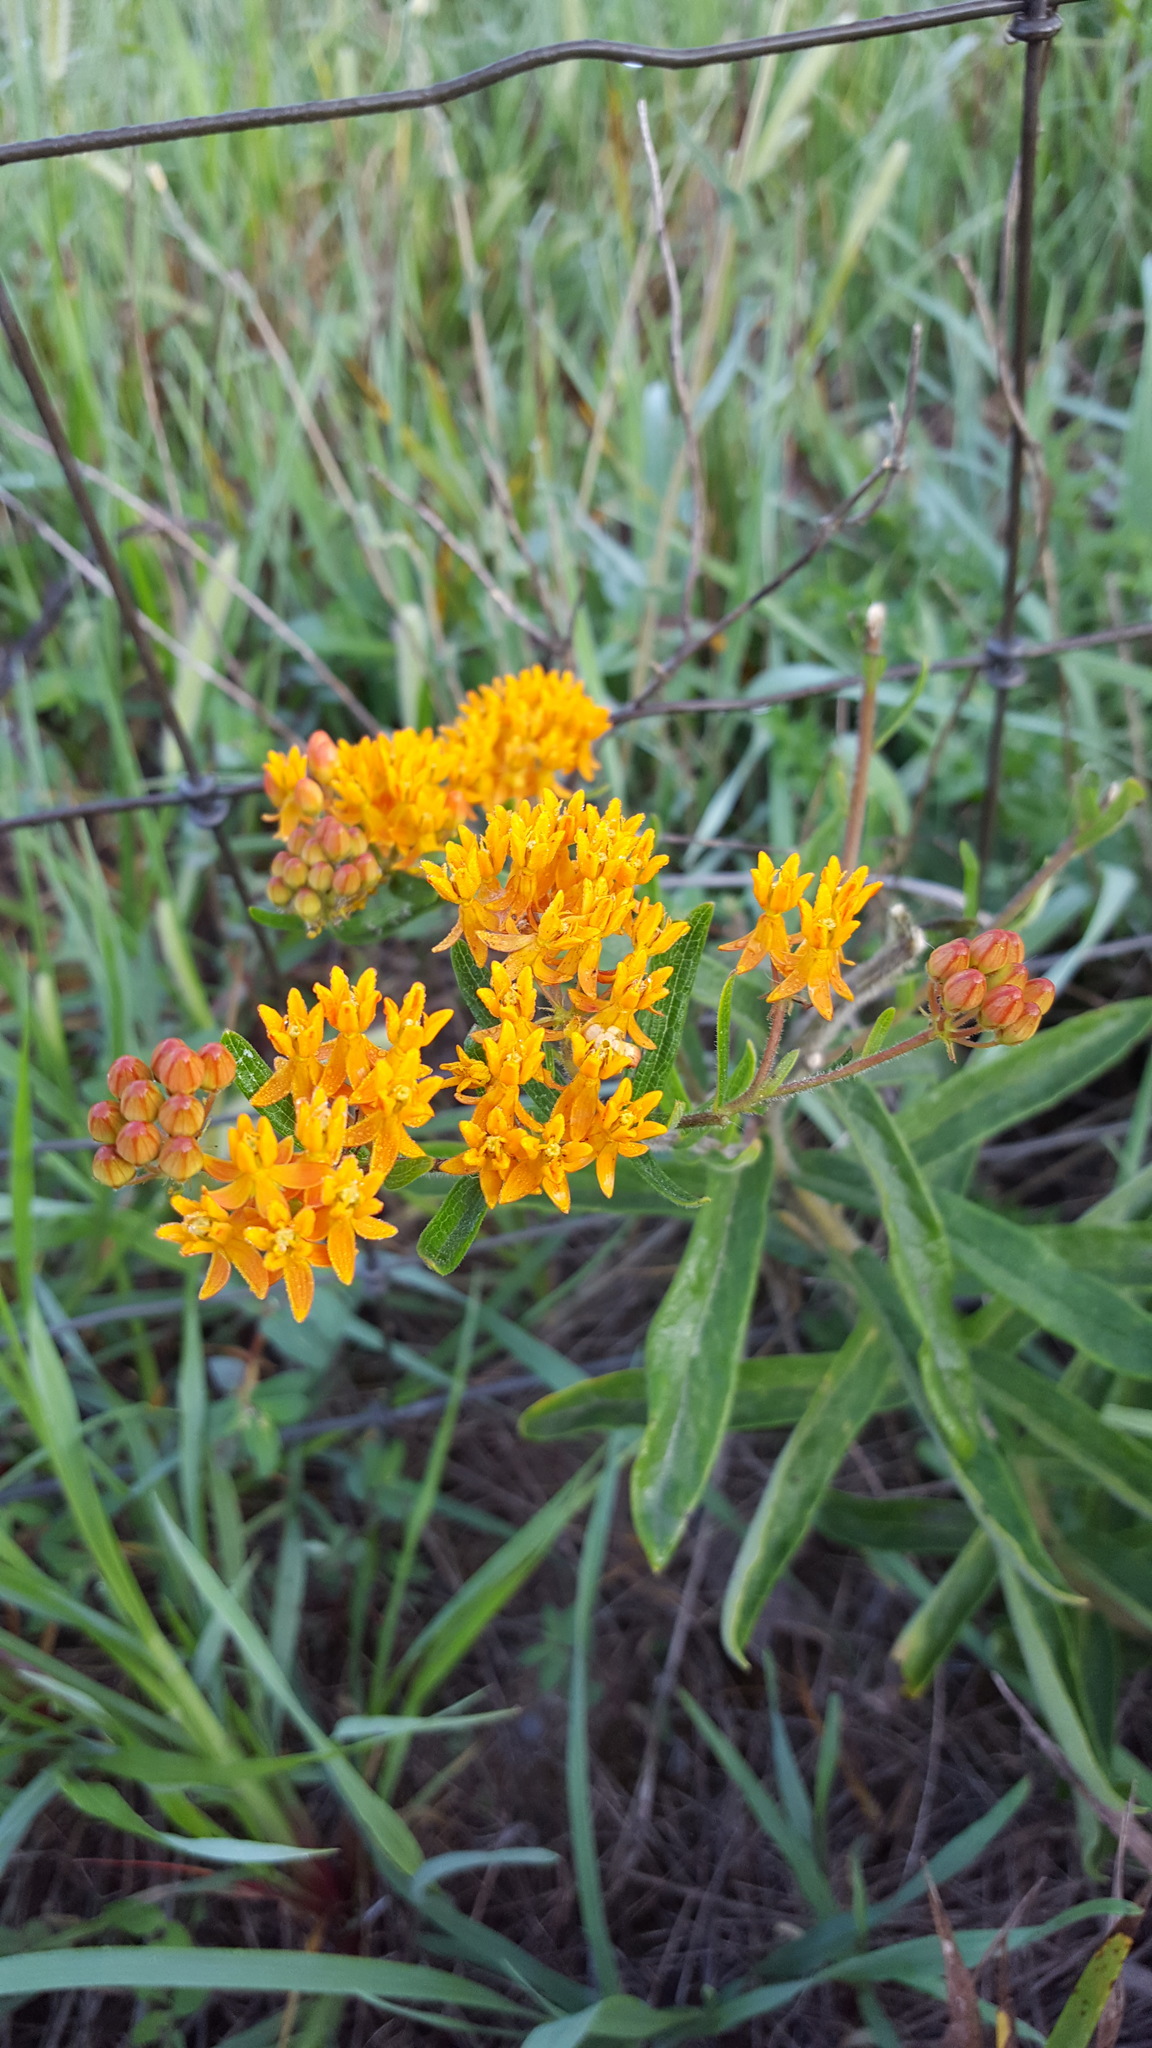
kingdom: Plantae
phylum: Tracheophyta
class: Magnoliopsida
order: Gentianales
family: Apocynaceae
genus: Asclepias
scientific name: Asclepias tuberosa
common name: Butterfly milkweed
